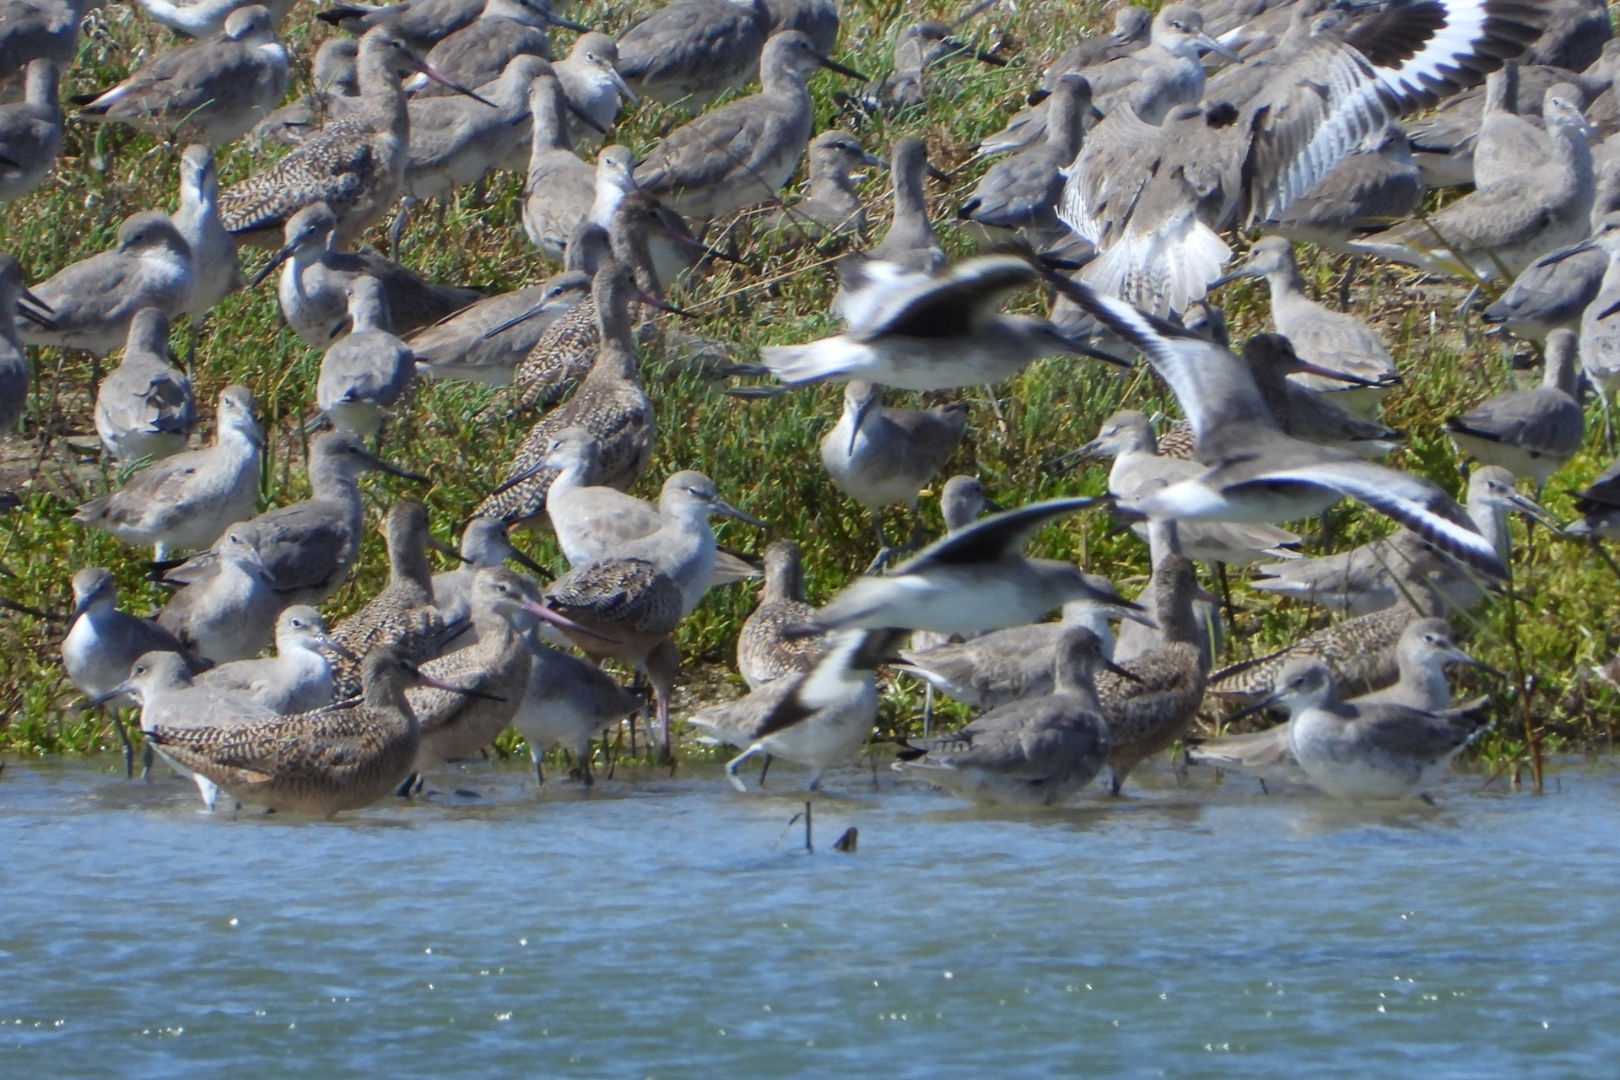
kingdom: Animalia
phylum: Chordata
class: Aves
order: Charadriiformes
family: Scolopacidae
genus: Limosa
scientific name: Limosa fedoa
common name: Marbled godwit
